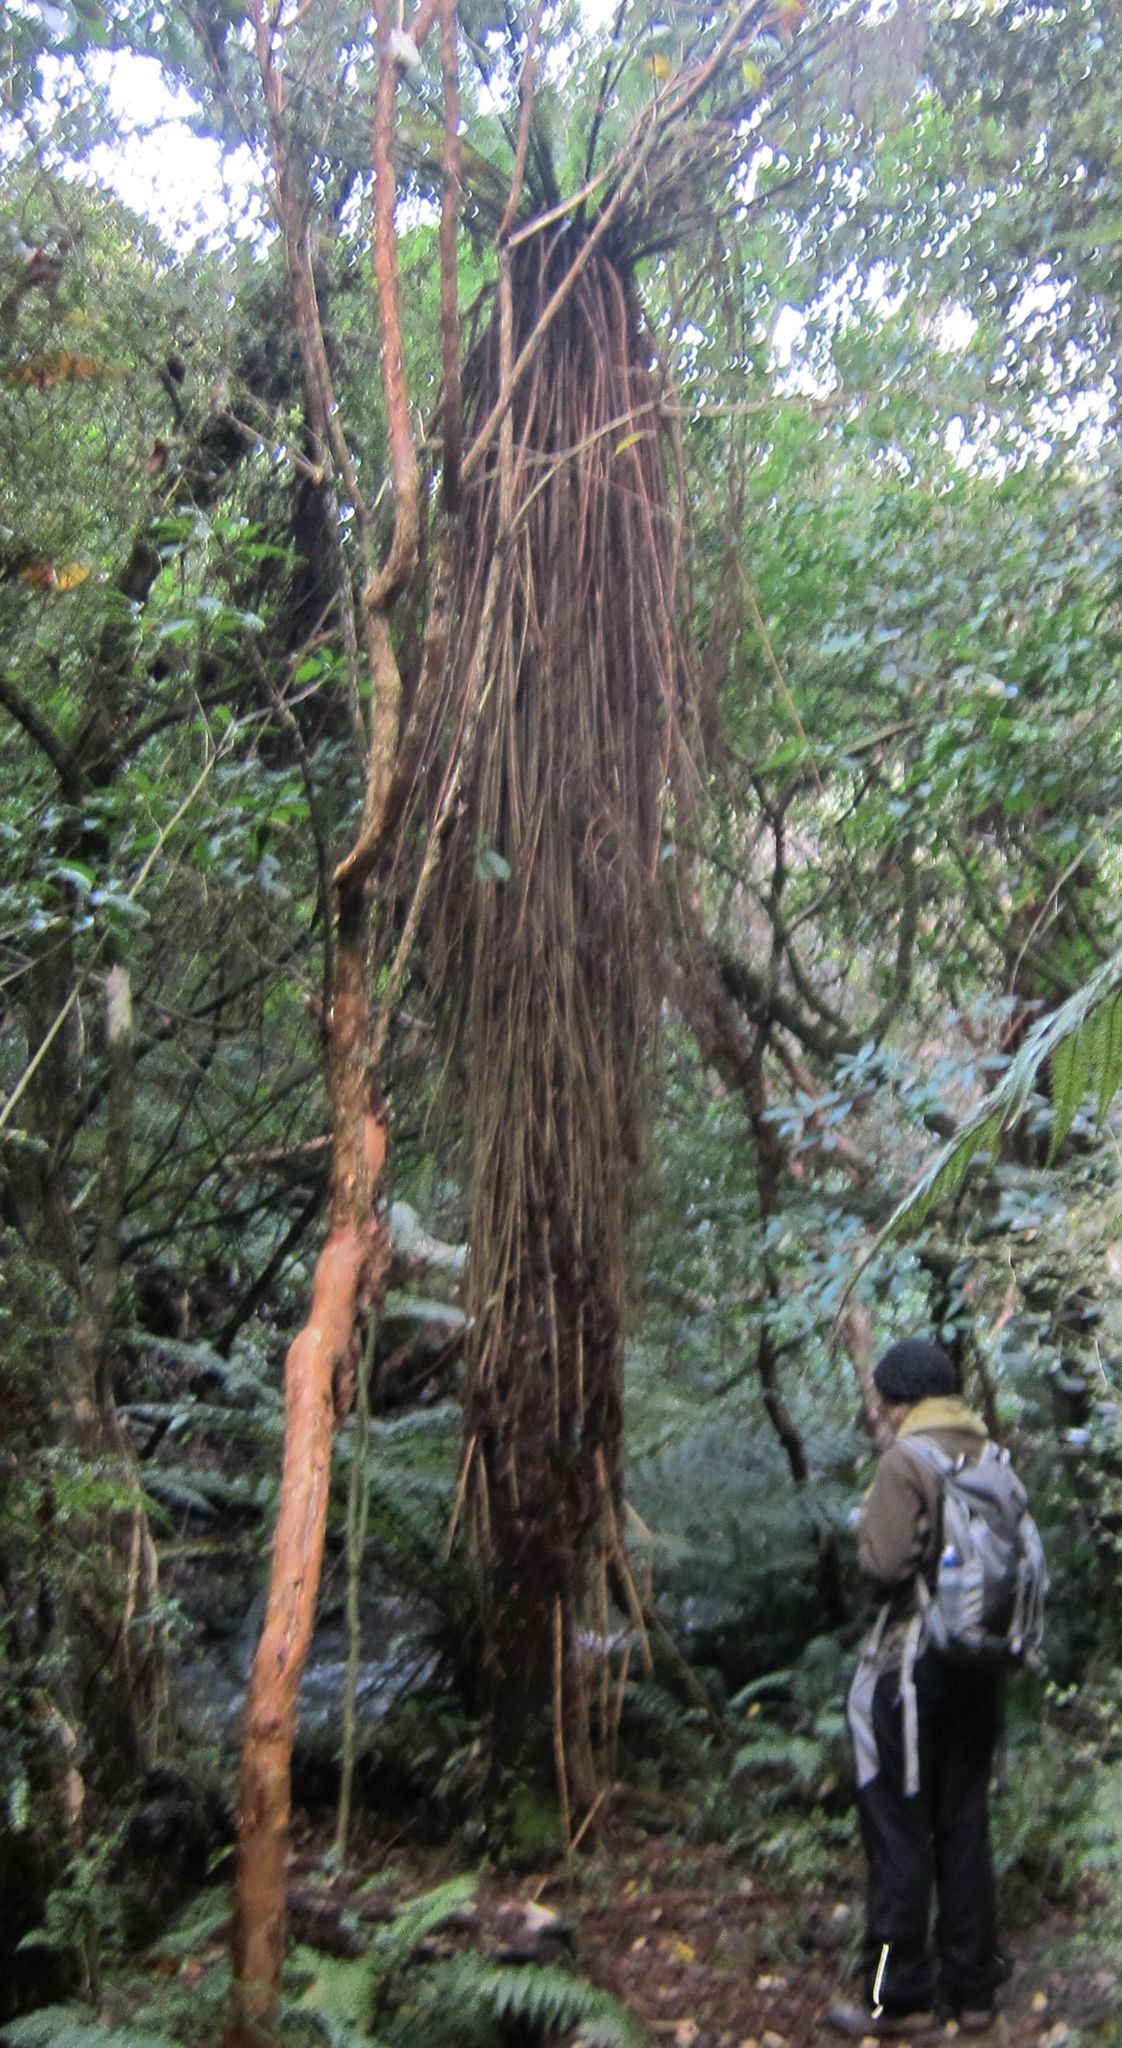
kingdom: Plantae
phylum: Tracheophyta
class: Polypodiopsida
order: Cyatheales
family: Cyatheaceae
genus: Alsophila
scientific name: Alsophila smithii
